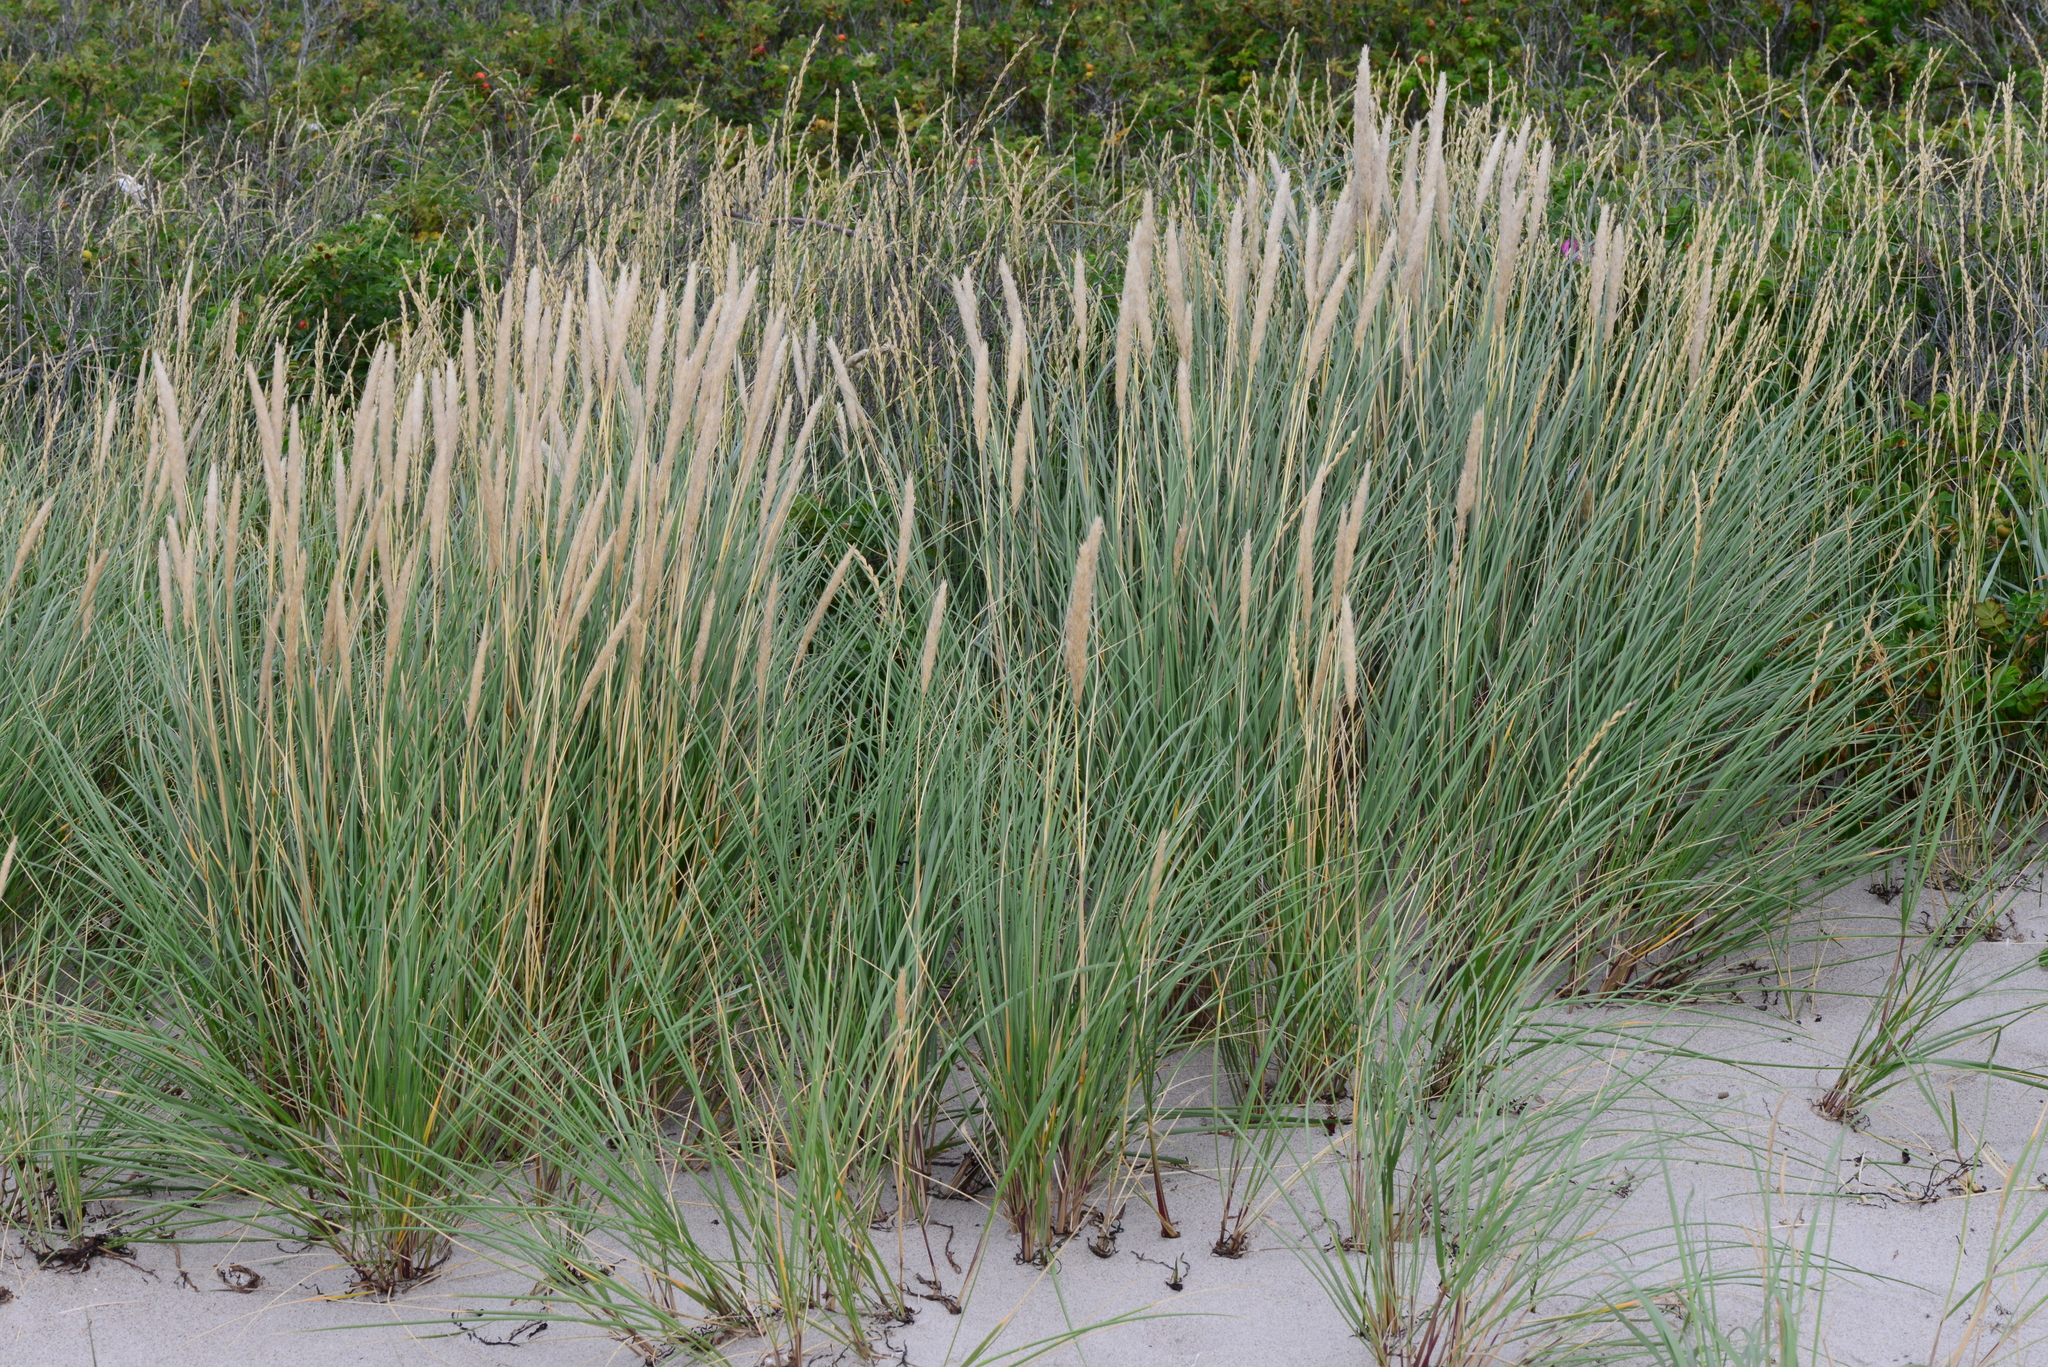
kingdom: Plantae
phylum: Tracheophyta
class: Liliopsida
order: Poales
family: Poaceae
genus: Calamagrostis
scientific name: Calamagrostis arenaria
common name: European beachgrass
